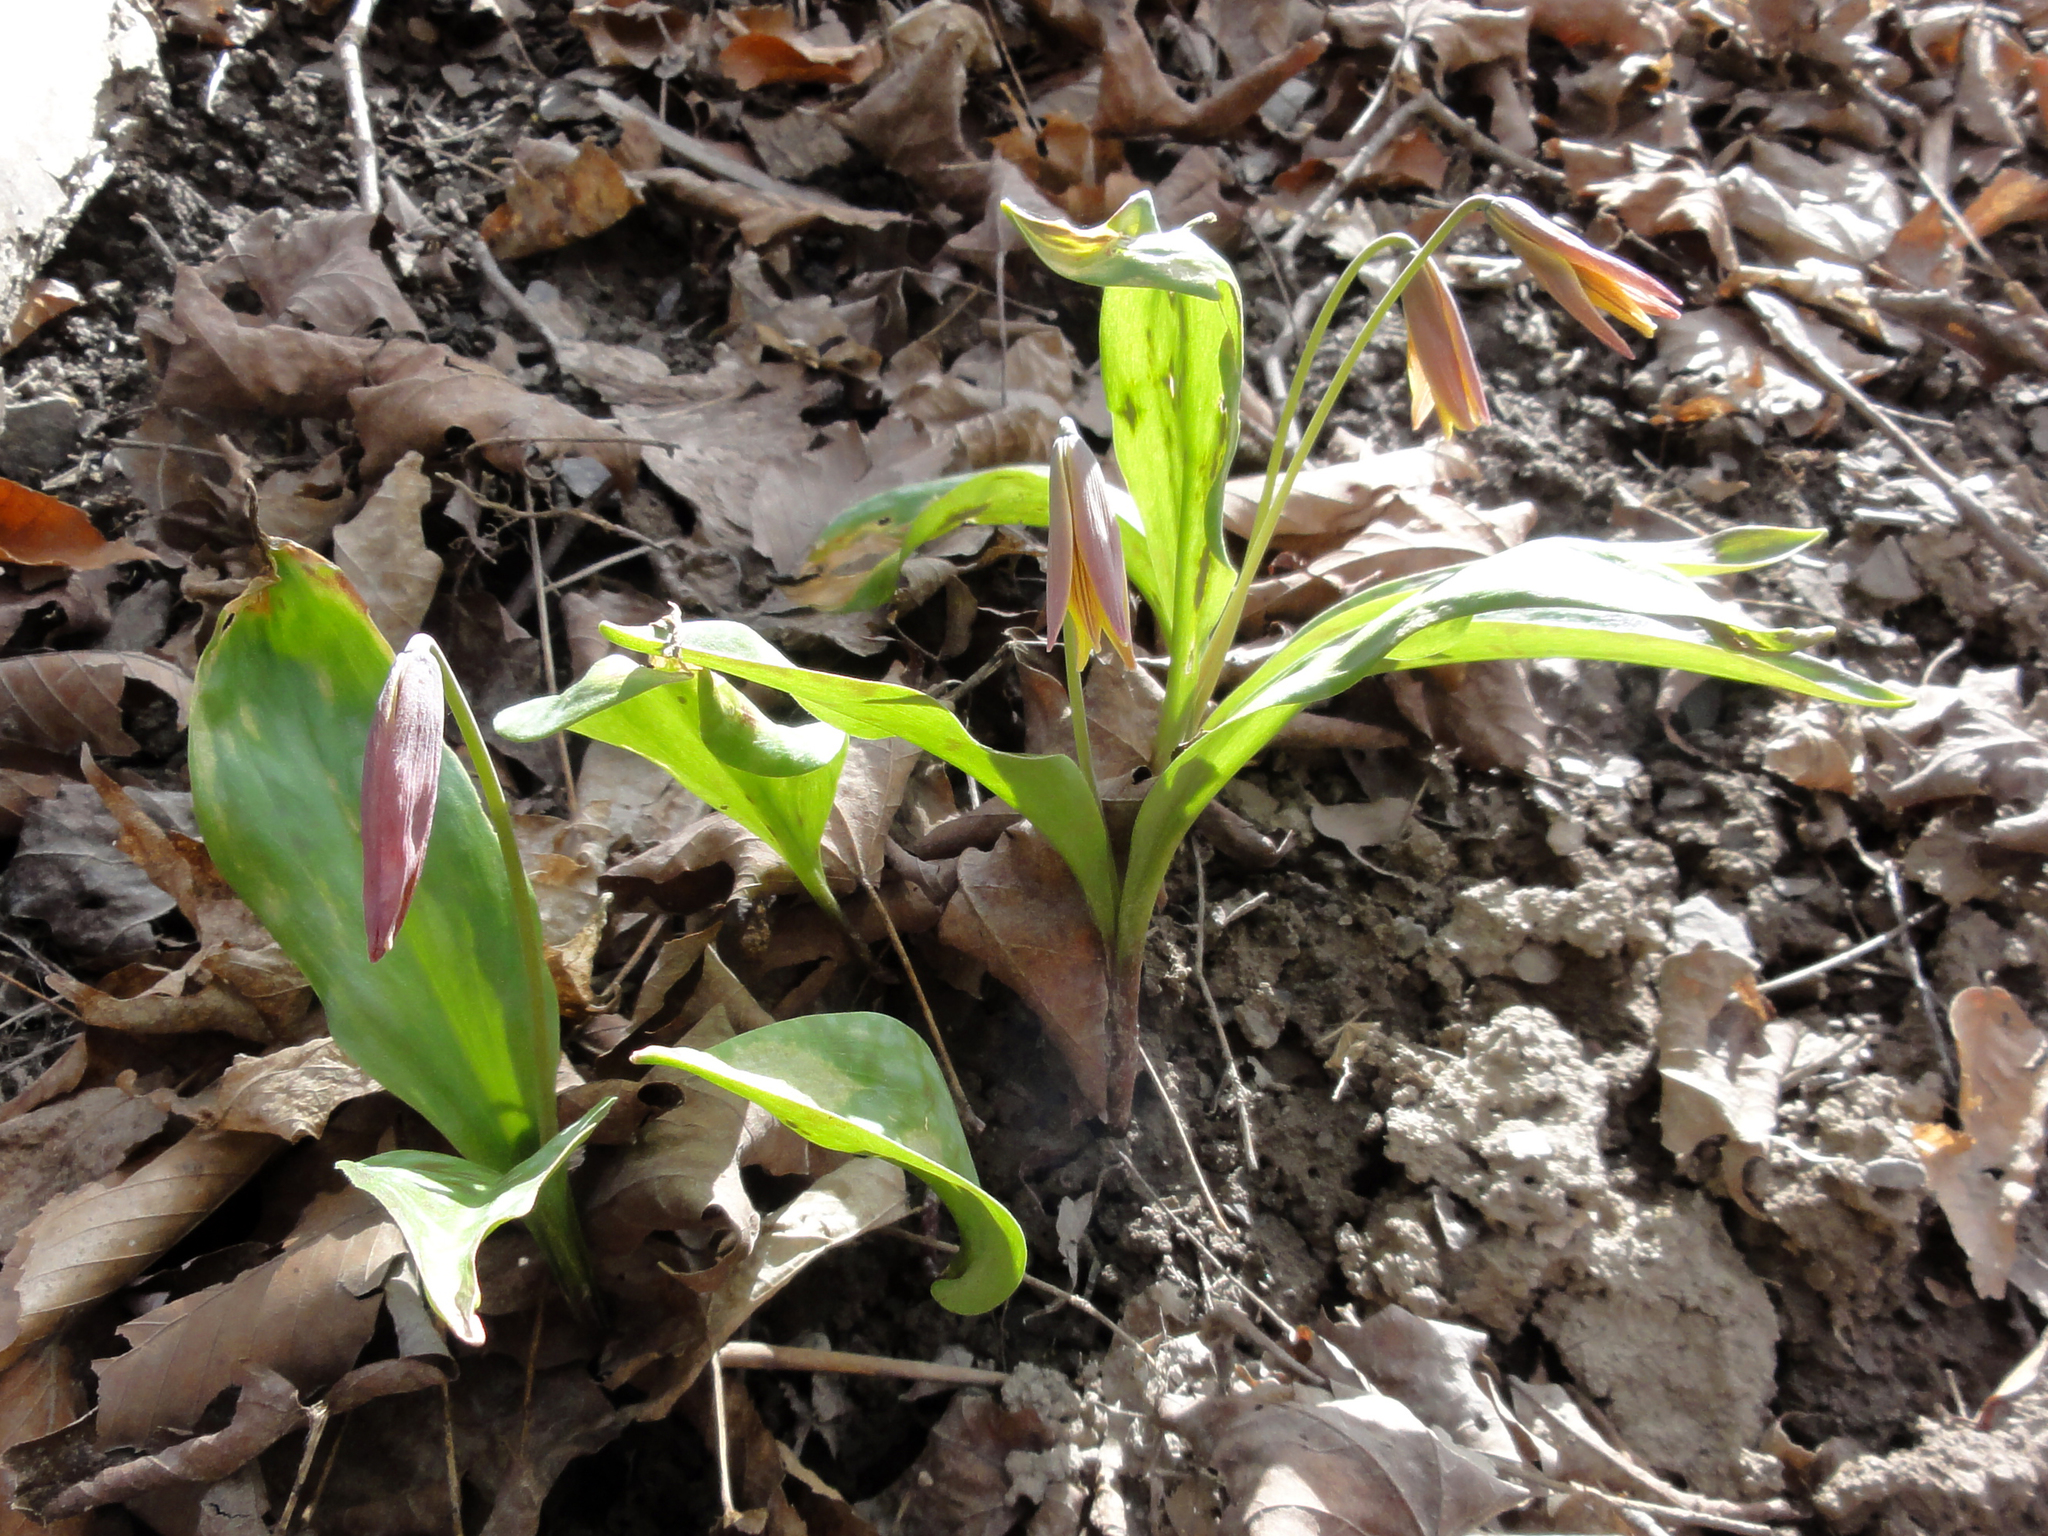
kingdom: Plantae
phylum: Tracheophyta
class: Liliopsida
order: Liliales
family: Liliaceae
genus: Erythronium
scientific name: Erythronium americanum
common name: Yellow adder's-tongue
